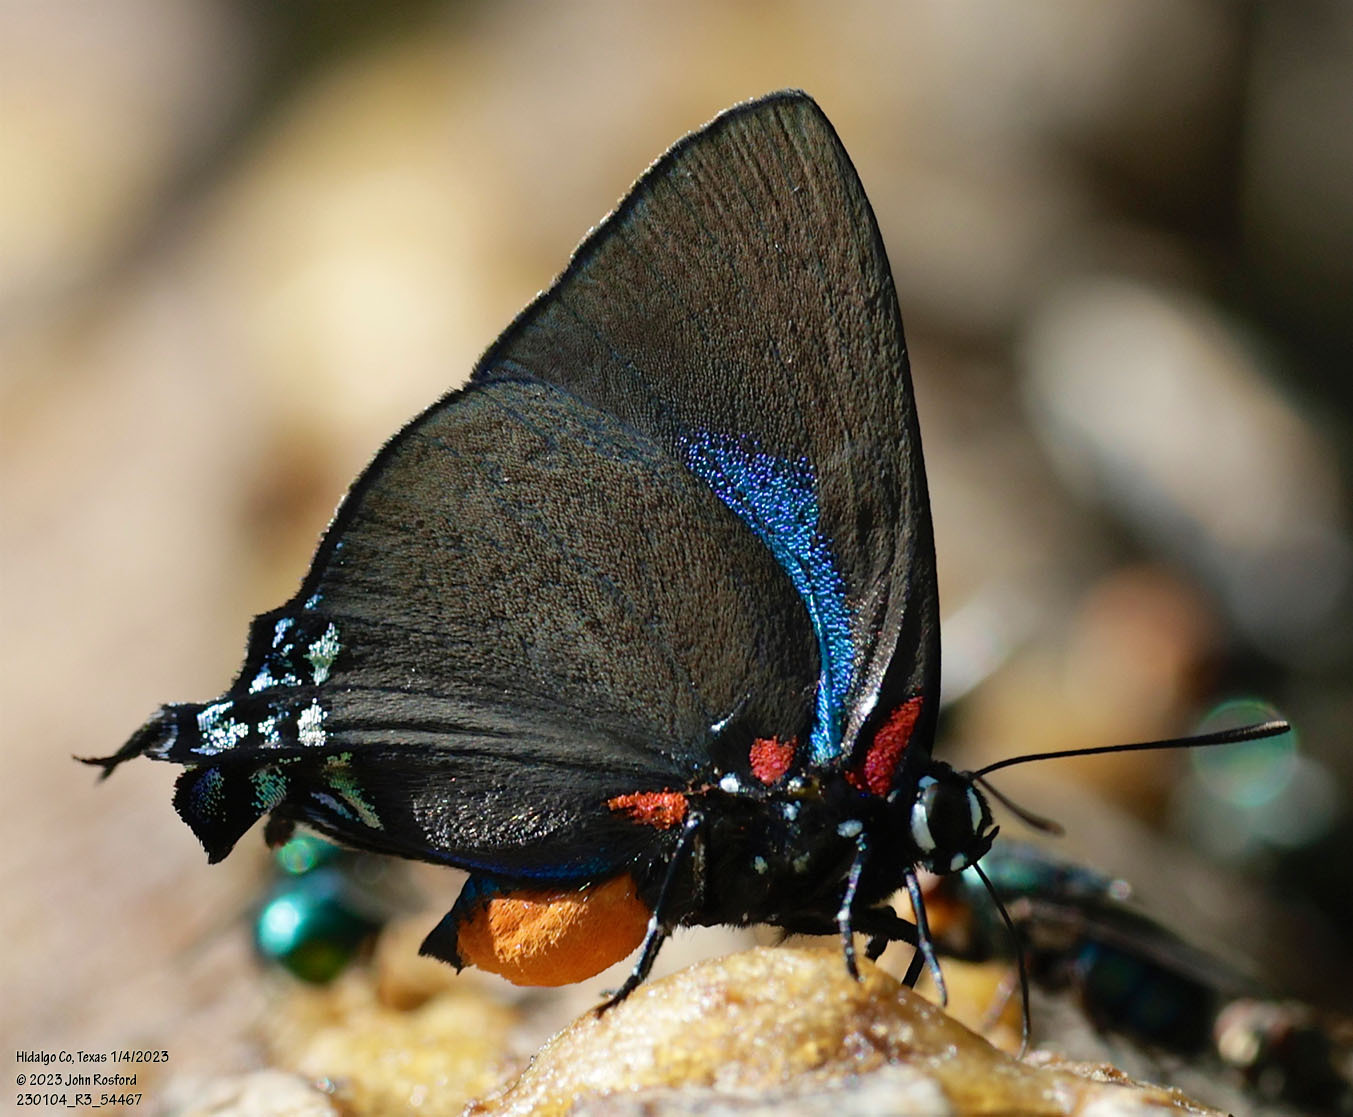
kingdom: Animalia
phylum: Arthropoda
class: Insecta
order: Lepidoptera
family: Lycaenidae
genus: Atlides
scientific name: Atlides halesus
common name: Great purple hairstreak
